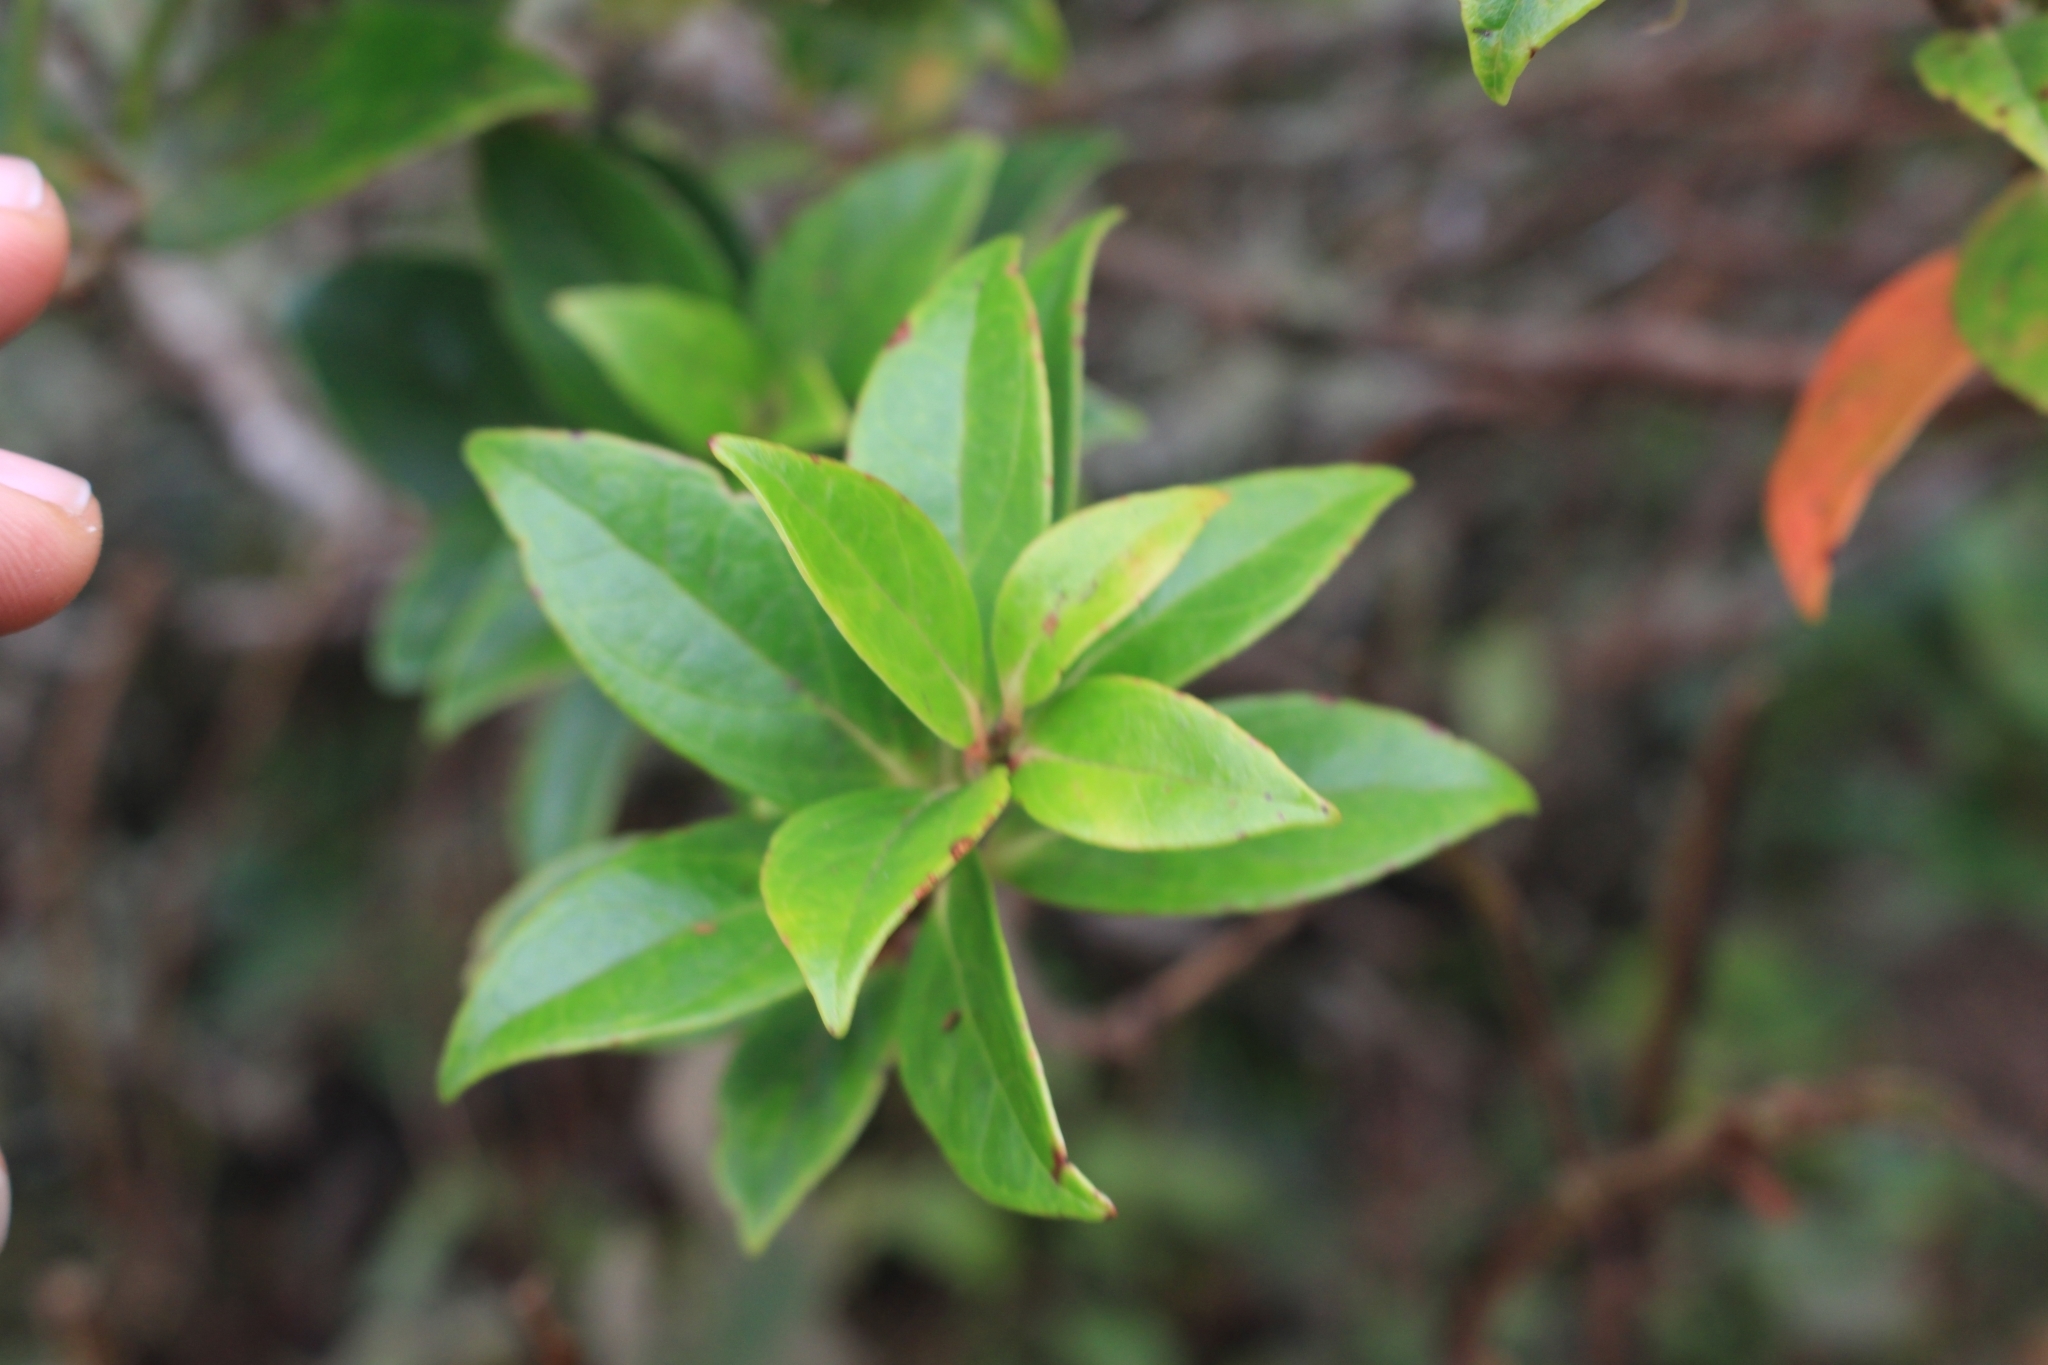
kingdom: Plantae
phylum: Tracheophyta
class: Magnoliopsida
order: Ericales
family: Ericaceae
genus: Symphysia
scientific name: Symphysia poasana
